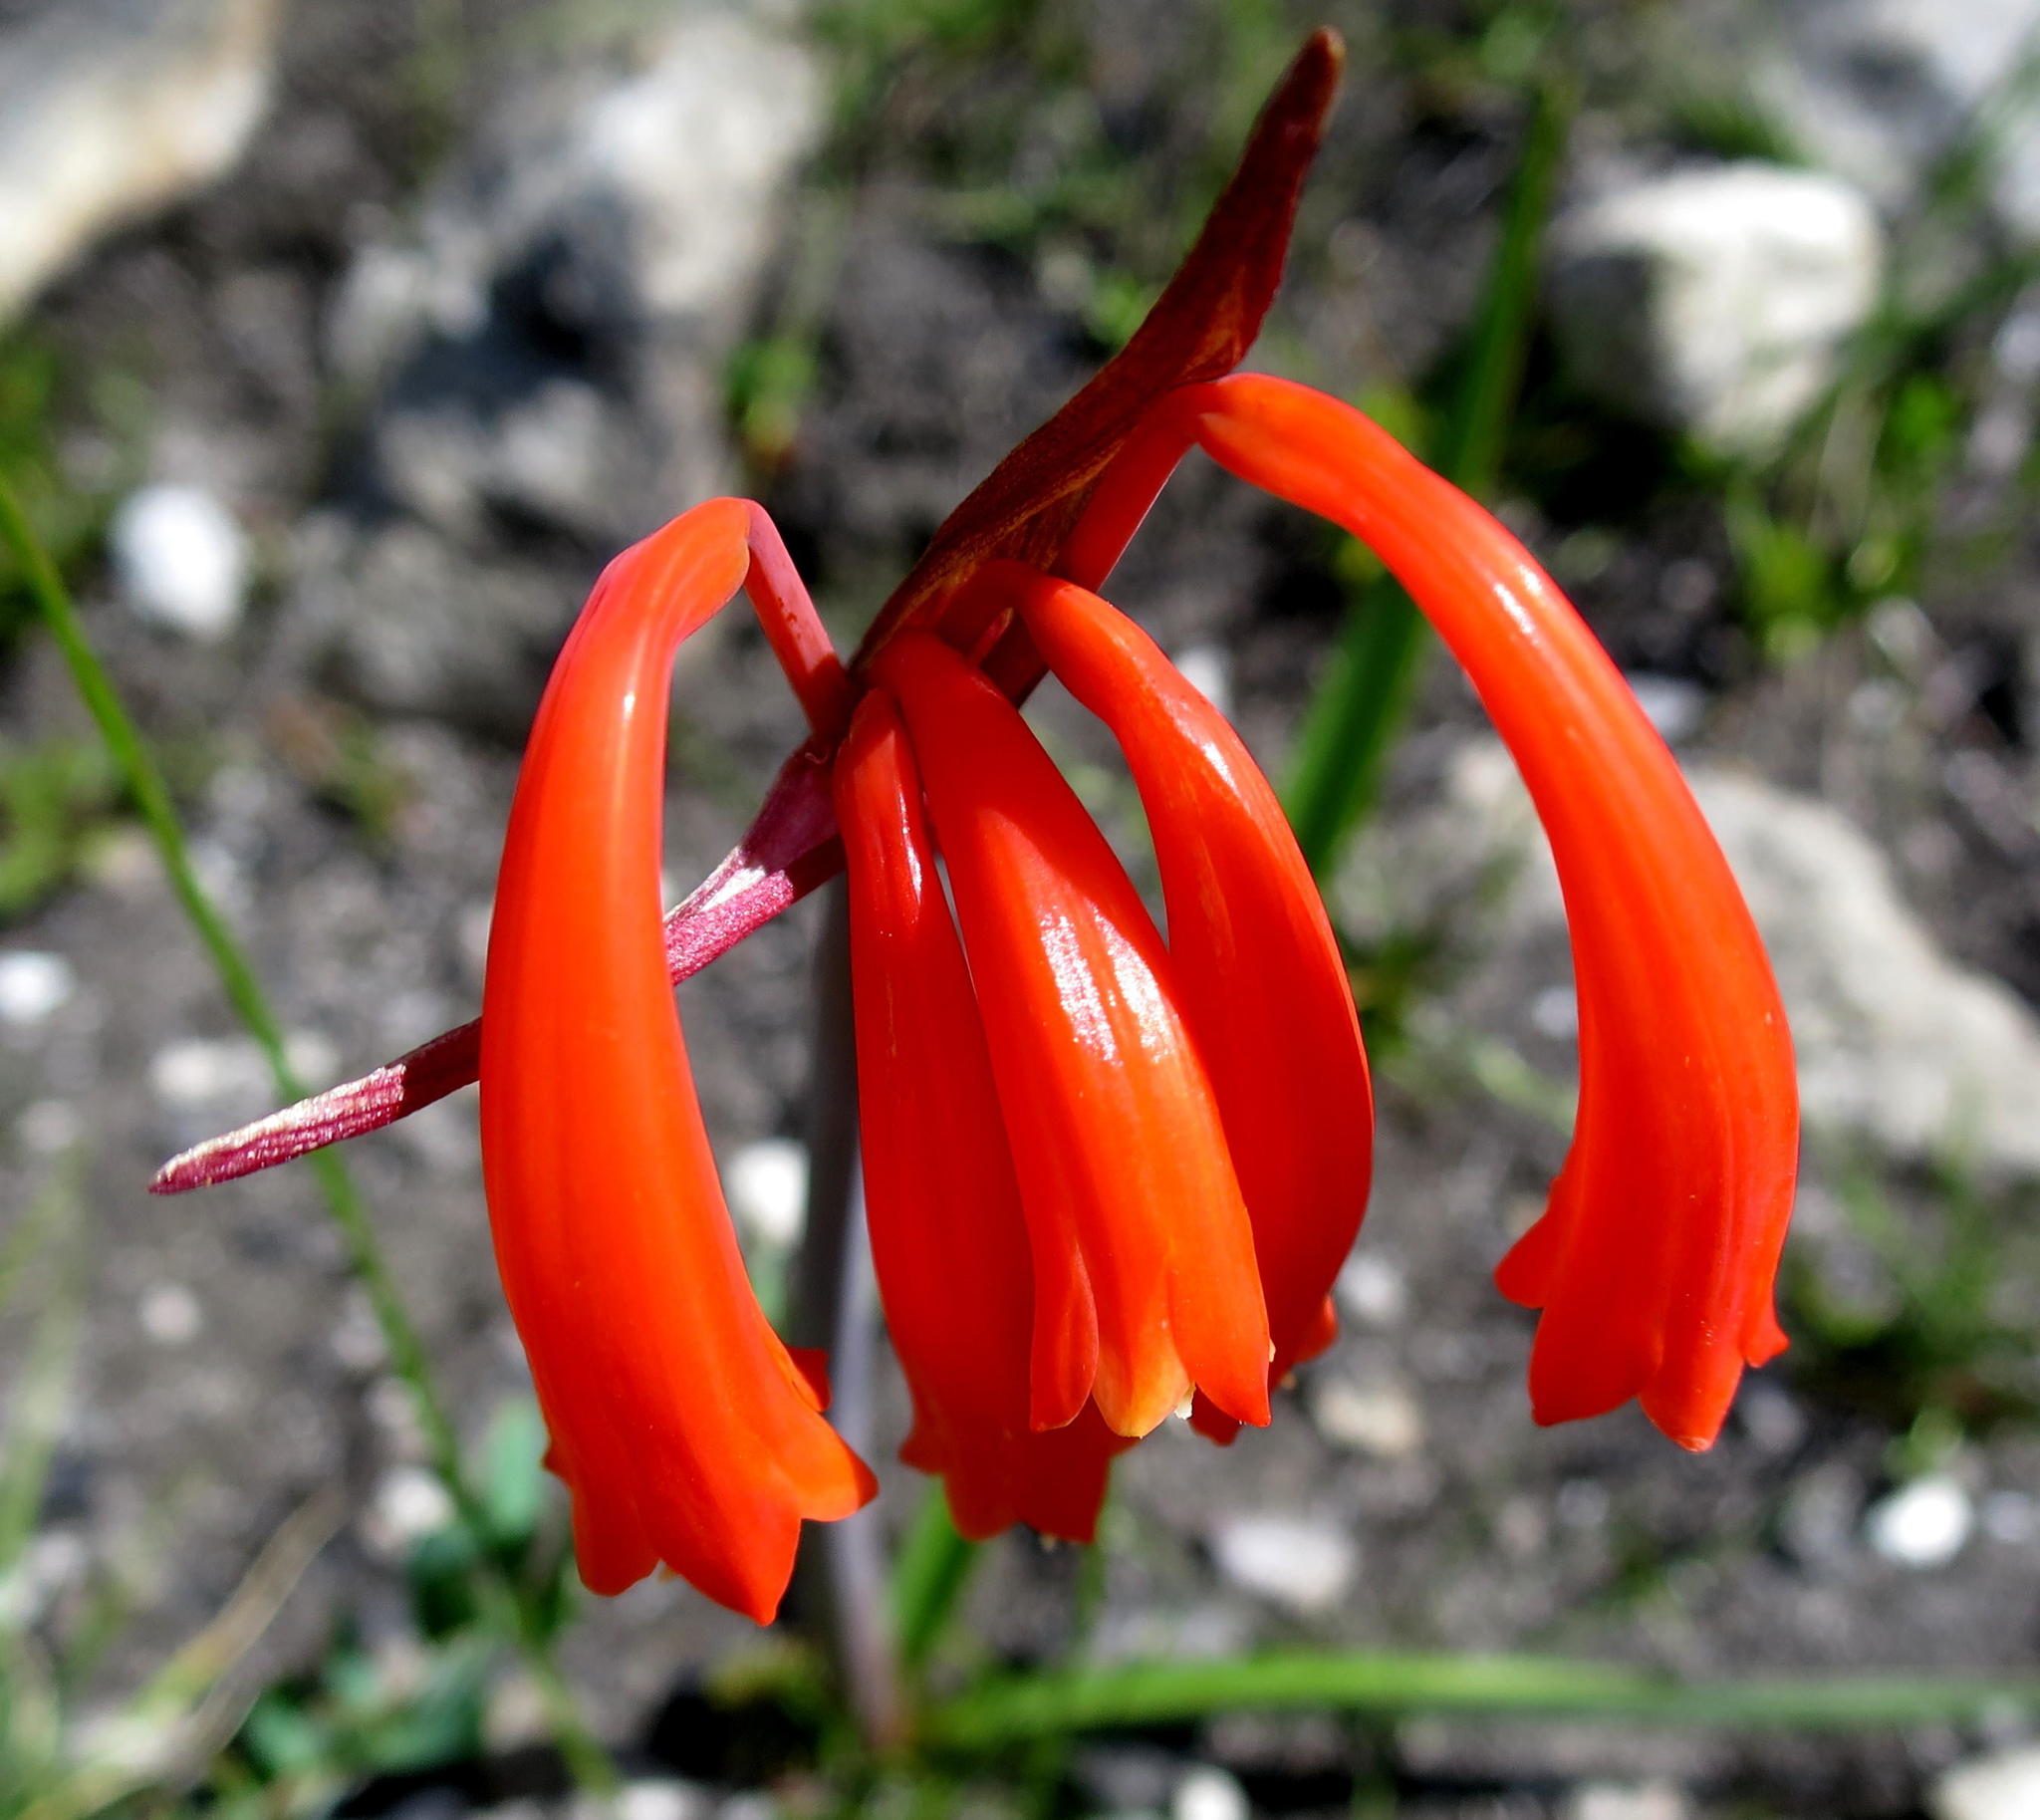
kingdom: Plantae
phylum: Tracheophyta
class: Liliopsida
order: Asparagales
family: Amaryllidaceae
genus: Cyrtanthus
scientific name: Cyrtanthus angustifolius
